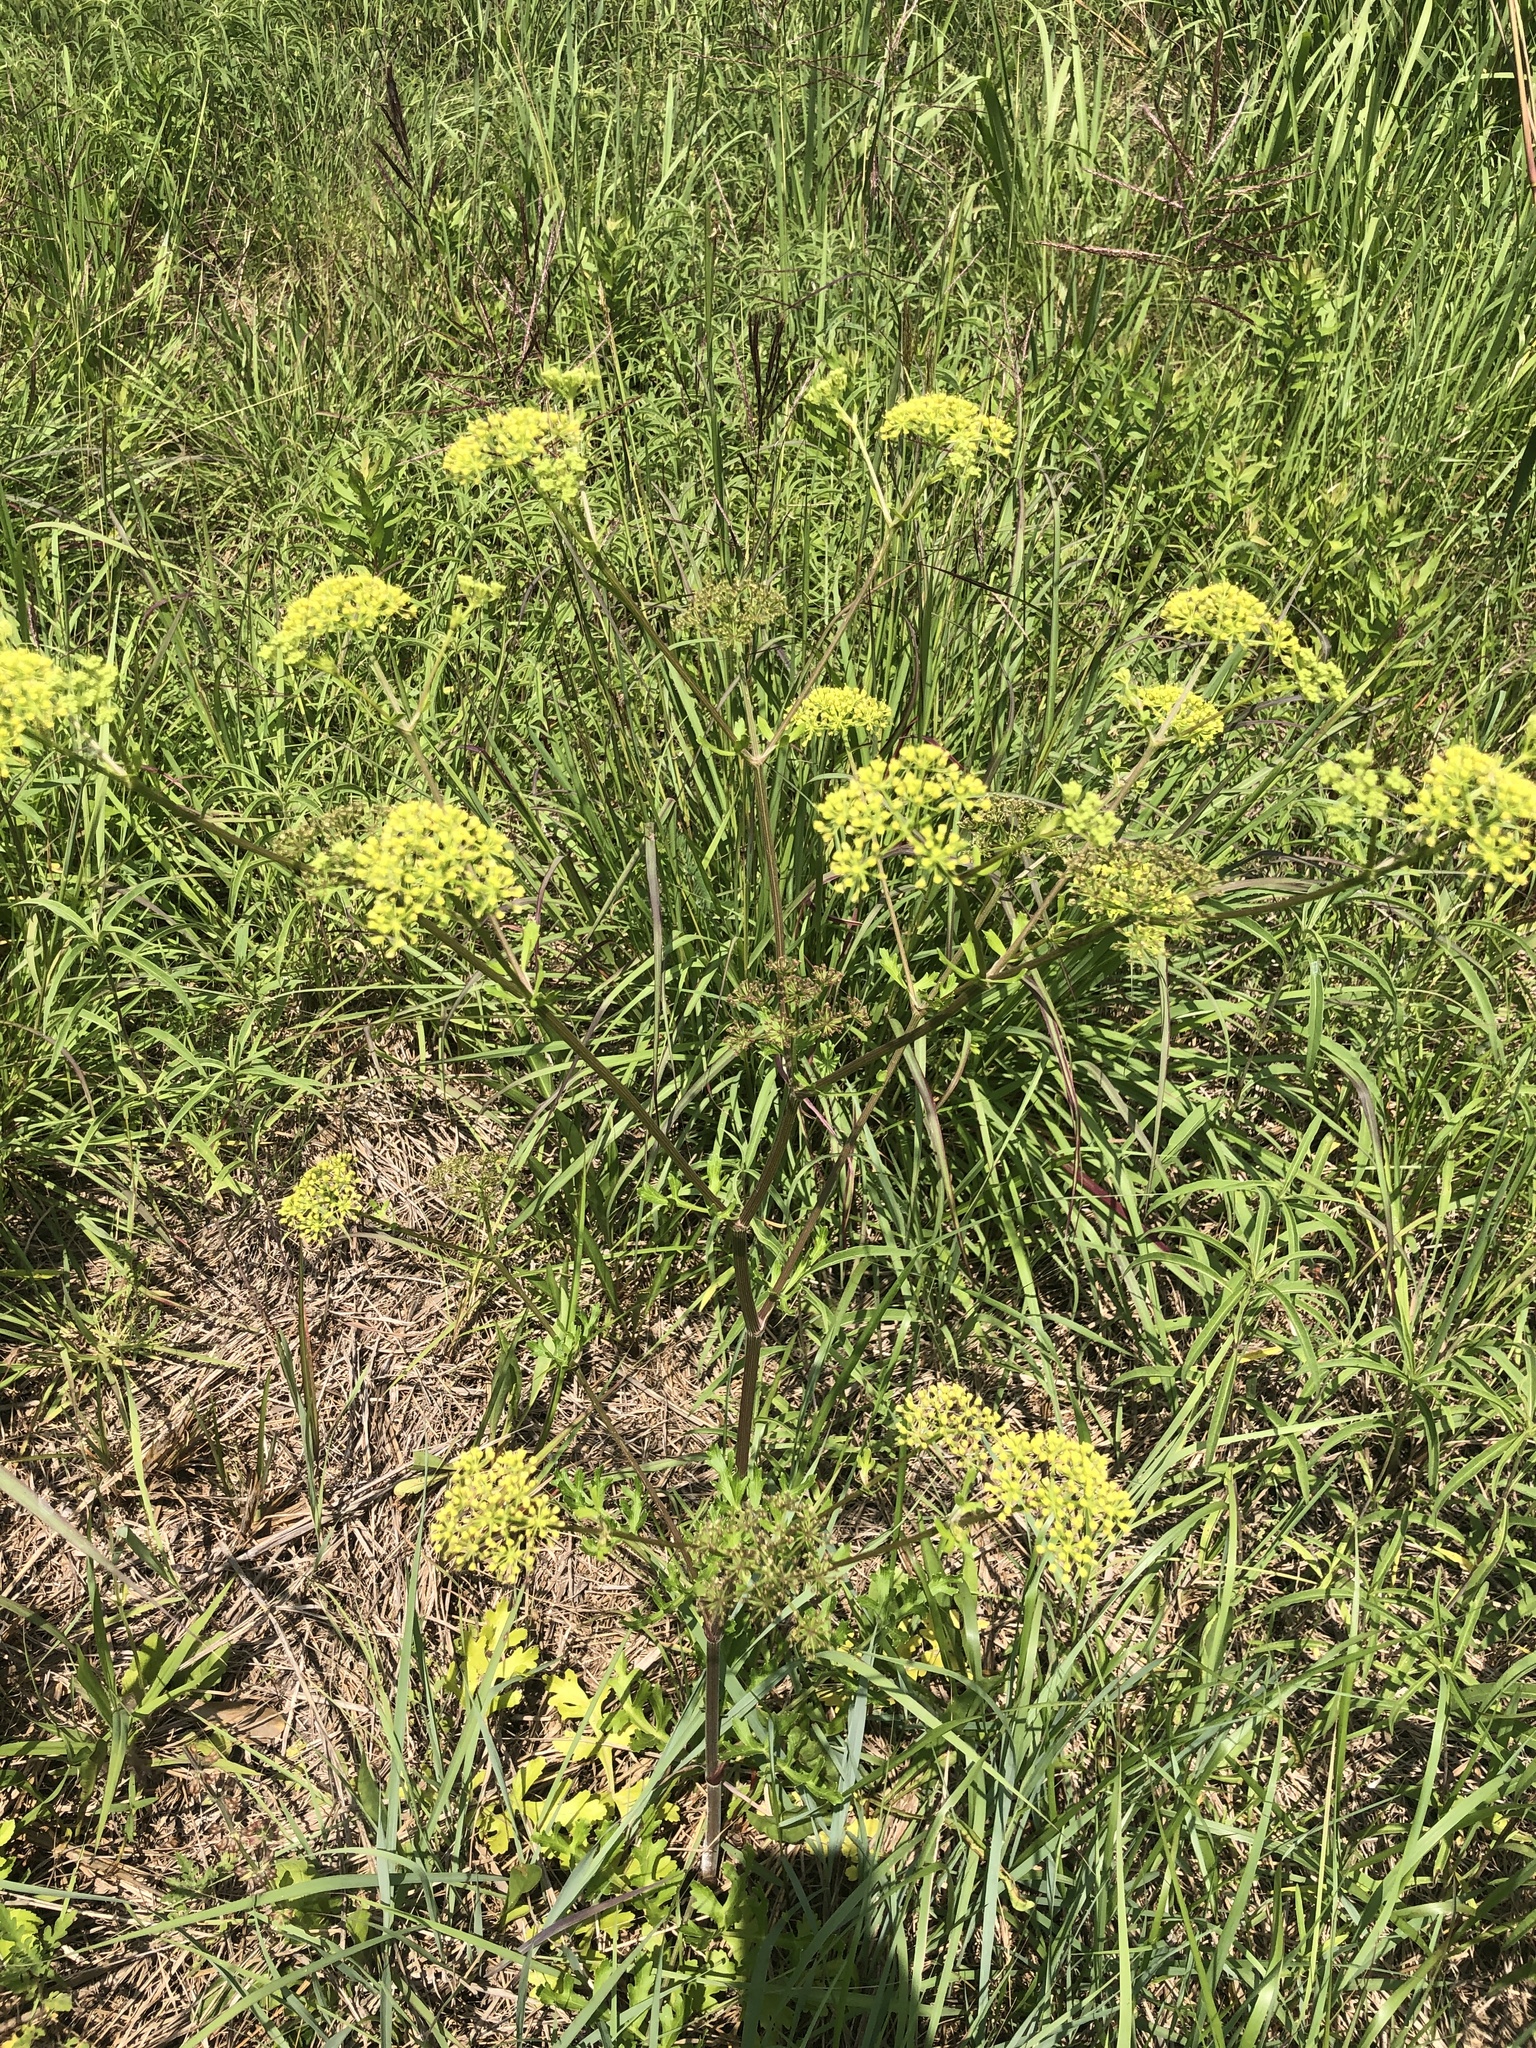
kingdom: Plantae
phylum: Tracheophyta
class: Magnoliopsida
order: Apiales
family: Apiaceae
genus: Polytaenia
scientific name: Polytaenia texana
